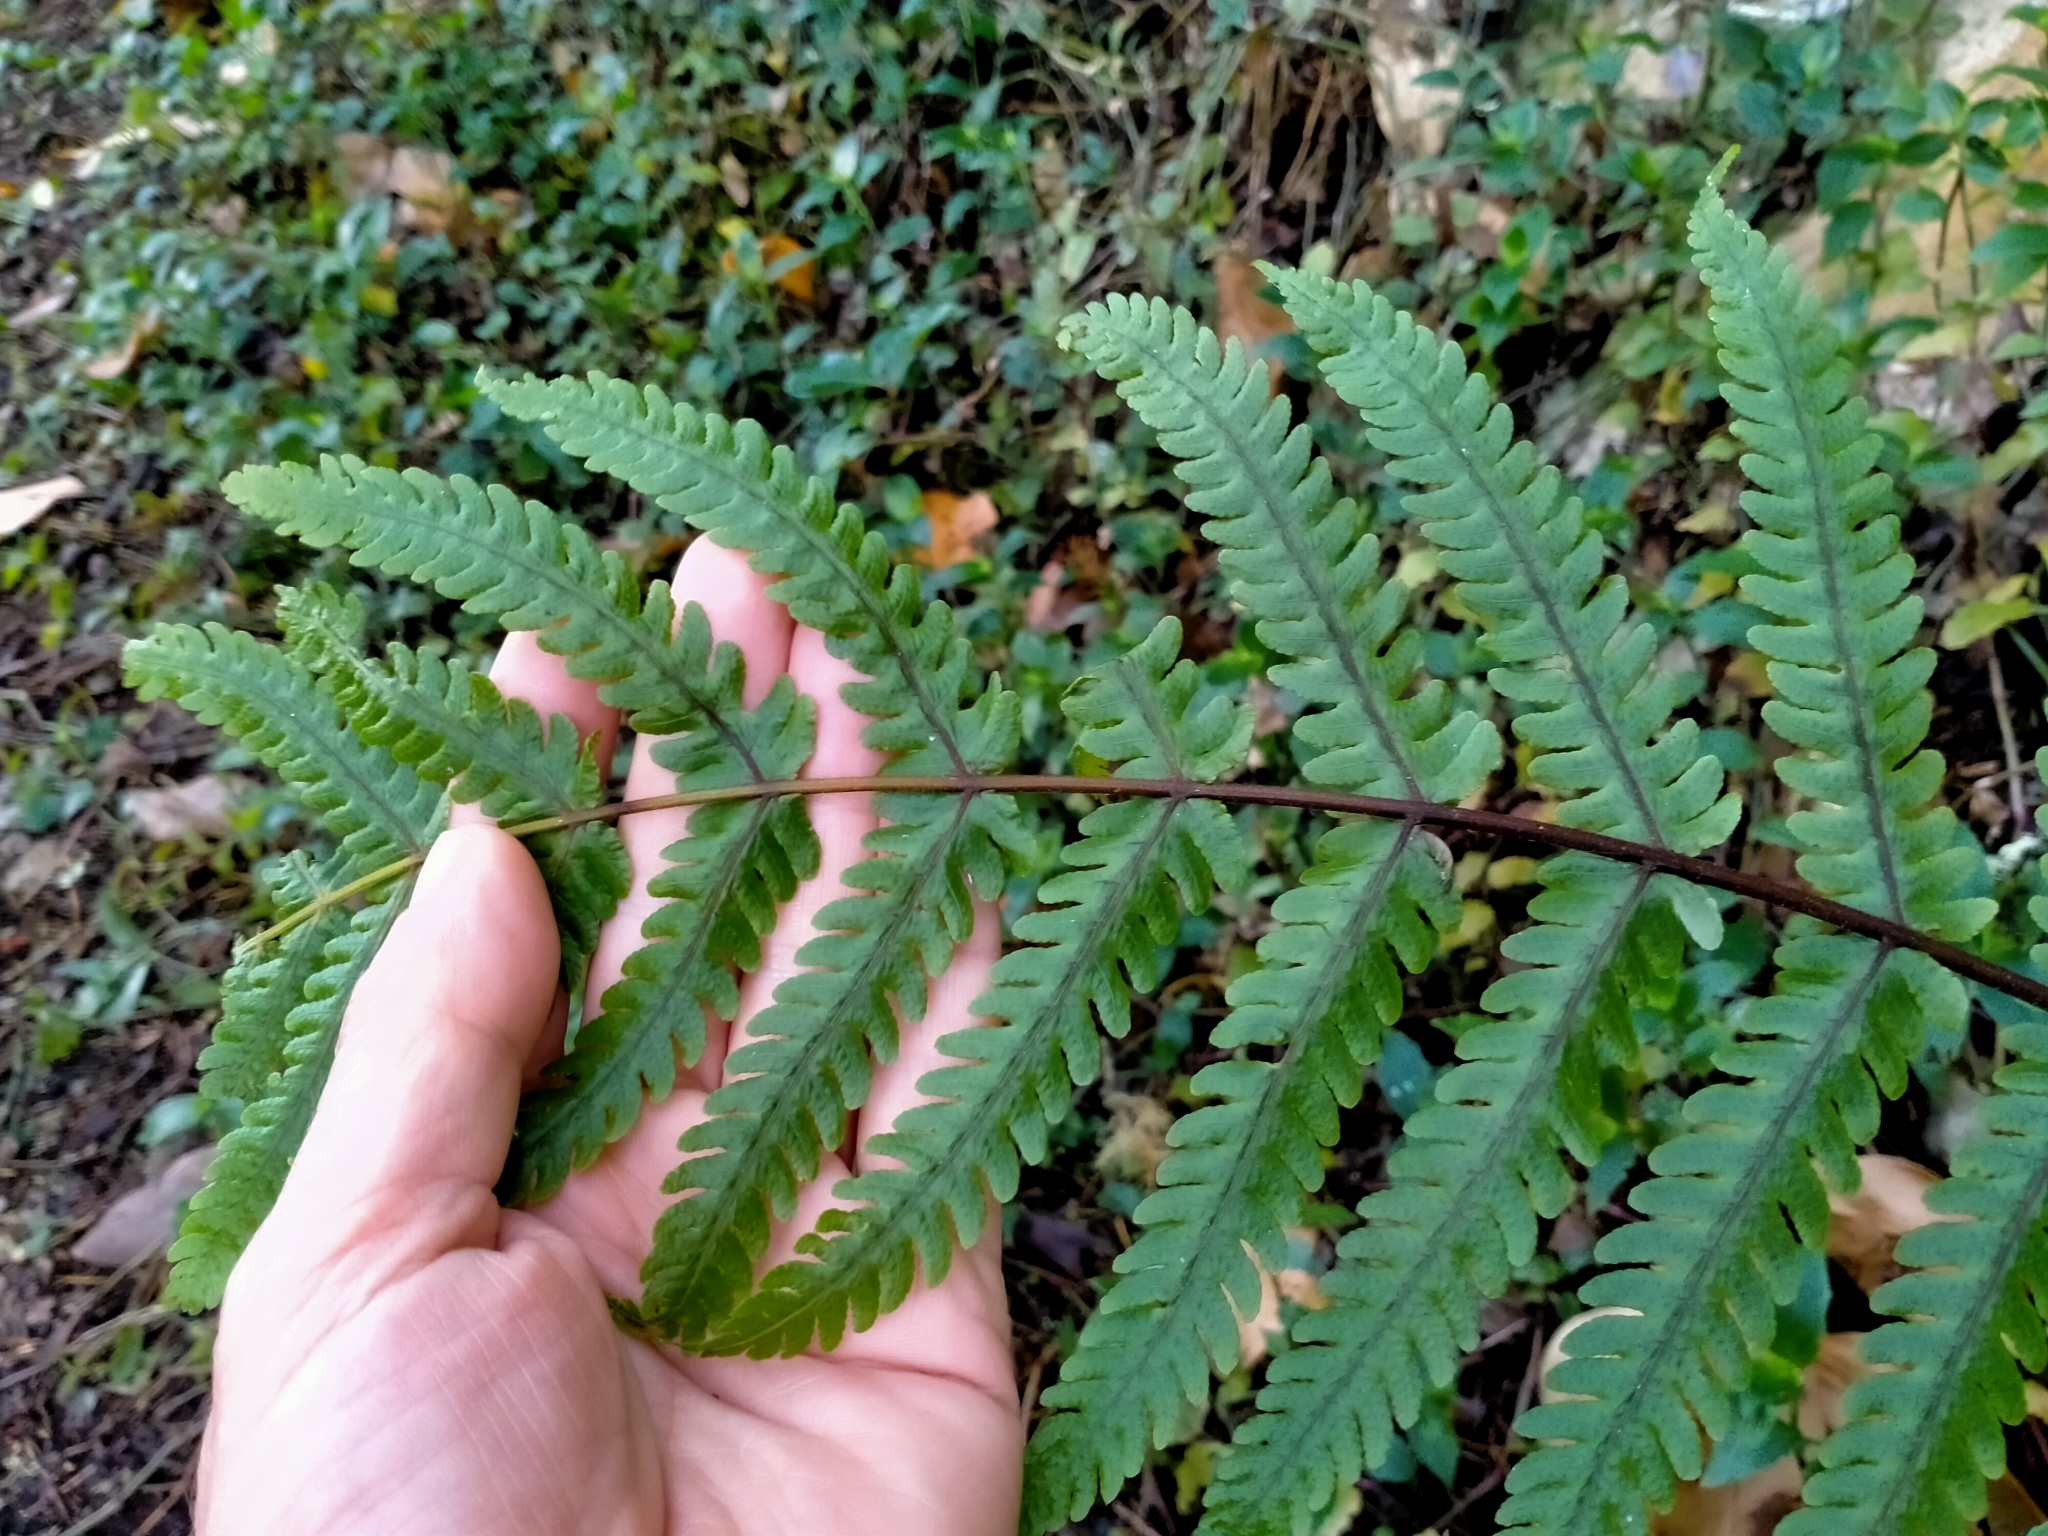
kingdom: Plantae
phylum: Tracheophyta
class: Polypodiopsida
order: Polypodiales
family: Thelypteridaceae
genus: Pakau
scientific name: Pakau pennigera
